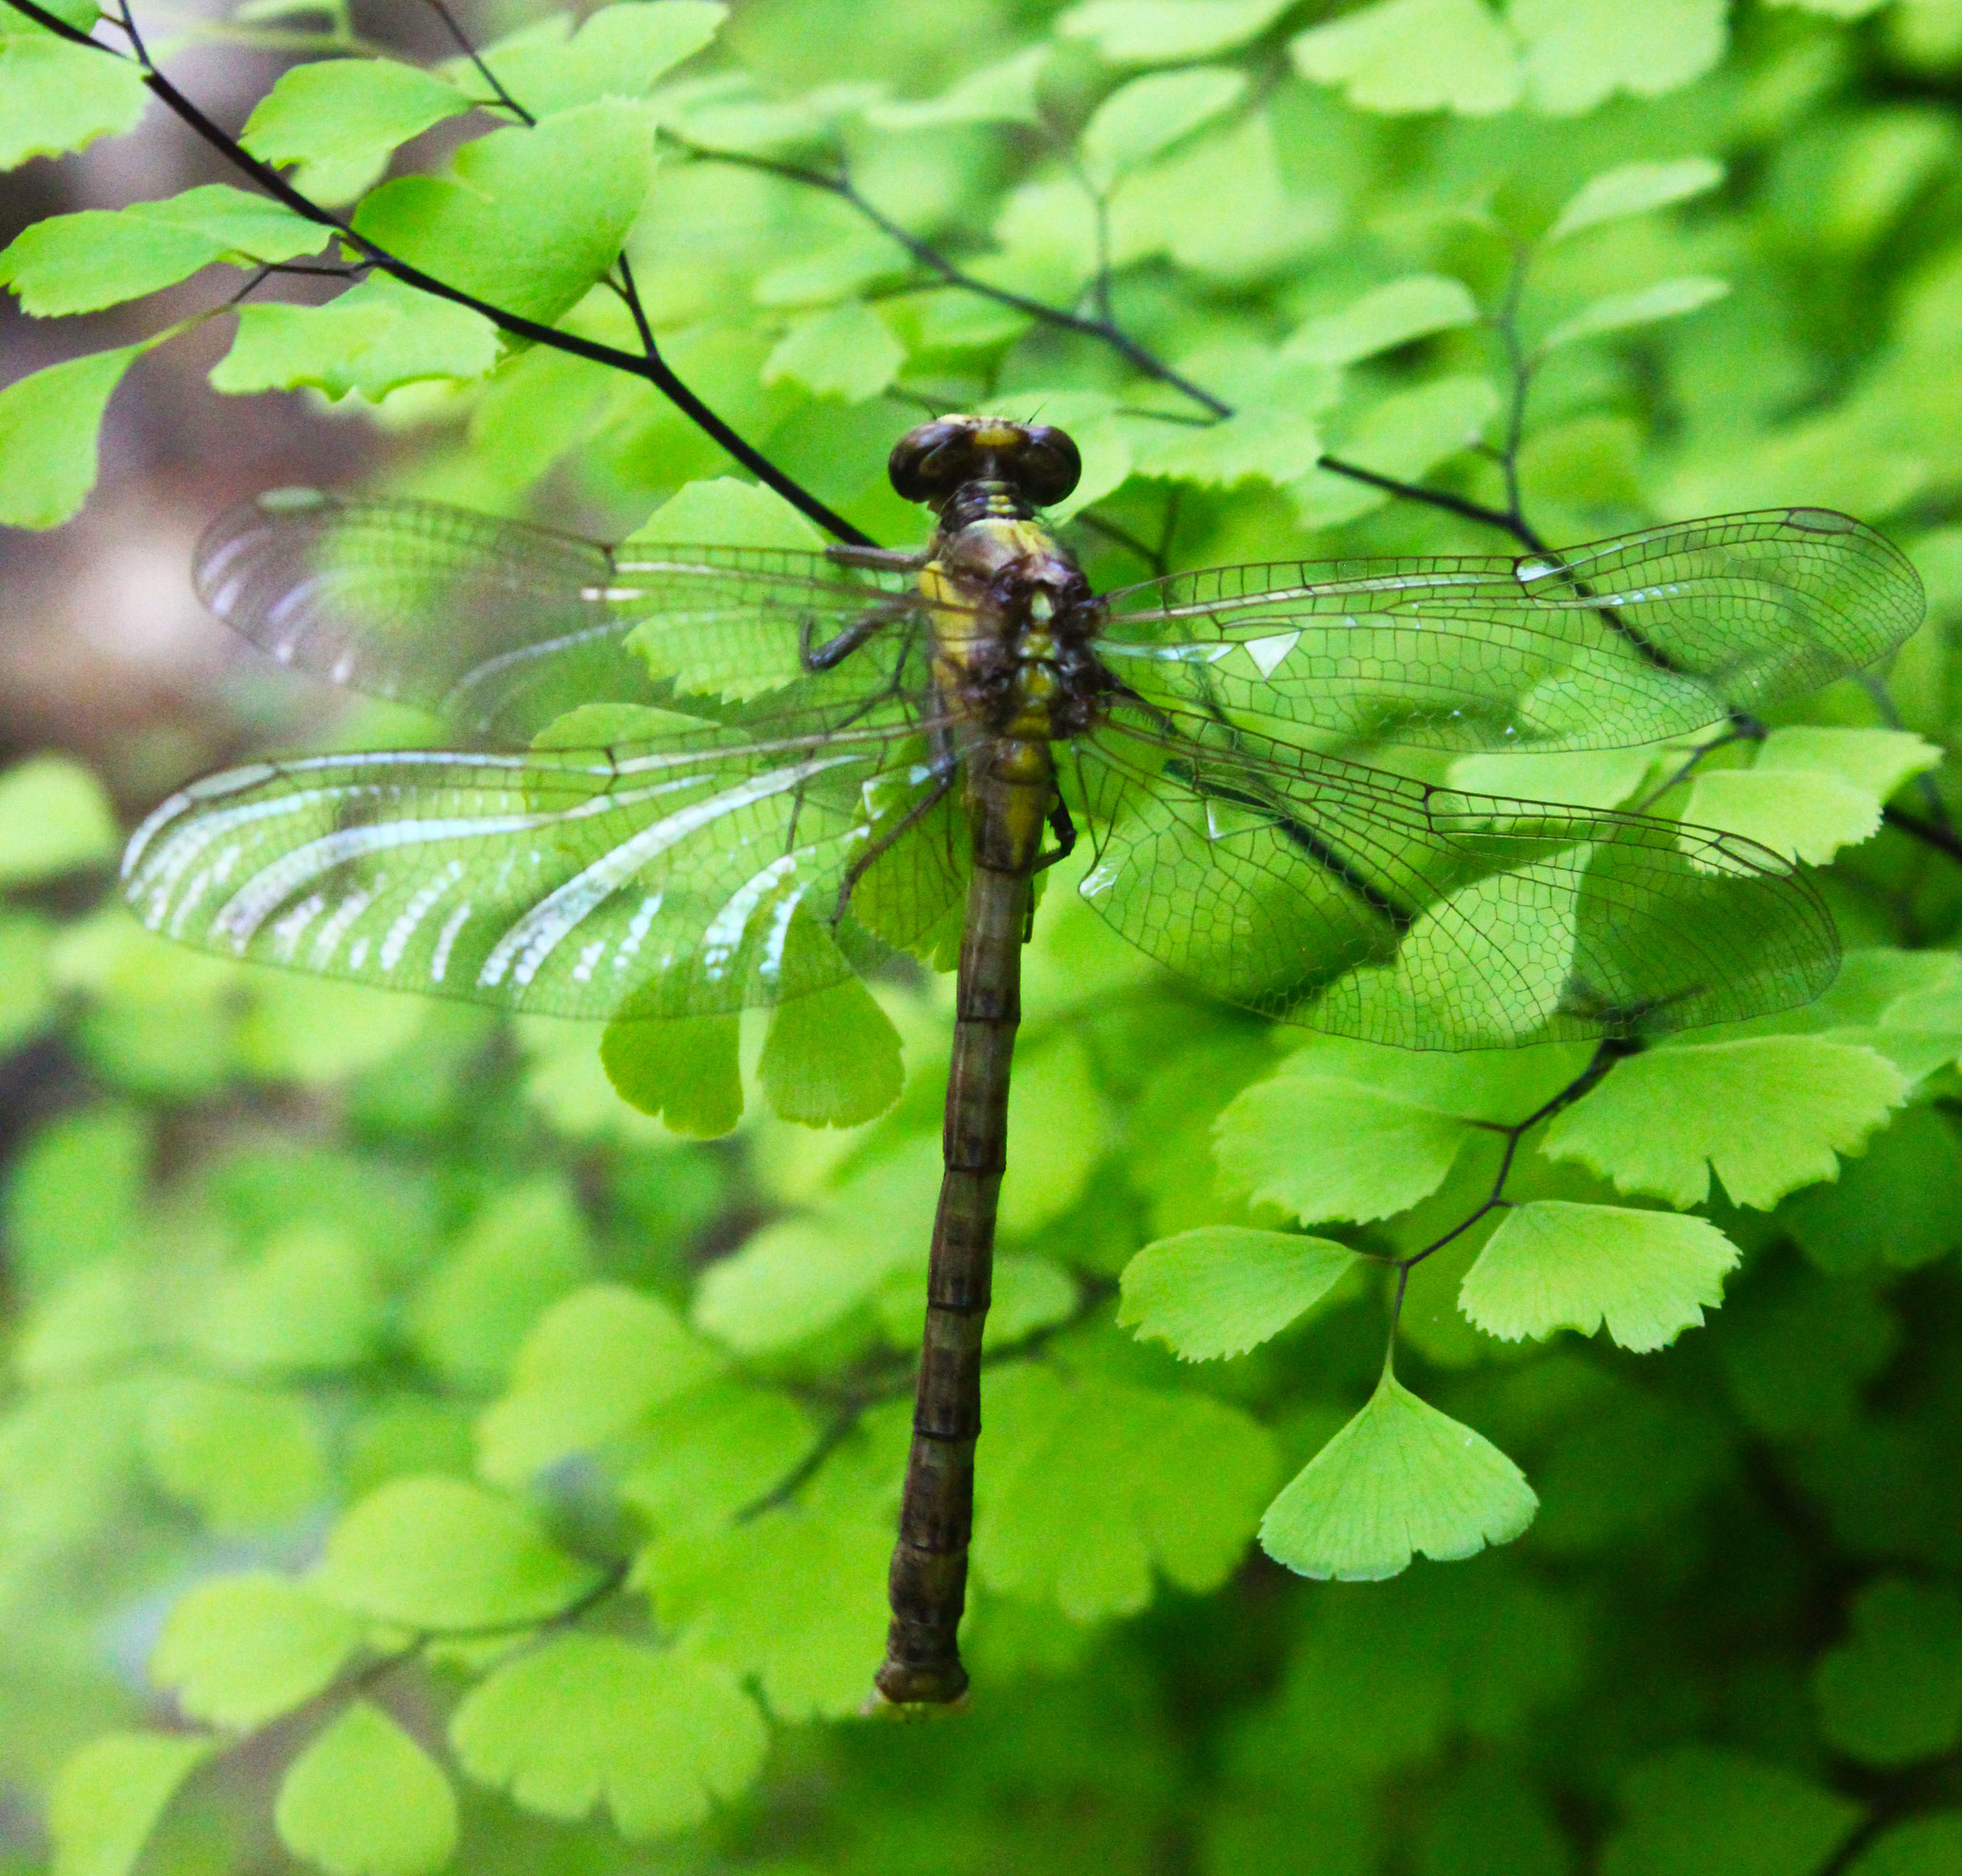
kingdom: Animalia
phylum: Arthropoda
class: Insecta
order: Odonata
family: Gomphidae
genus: Octogomphus
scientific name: Octogomphus specularis
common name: Grappletail
